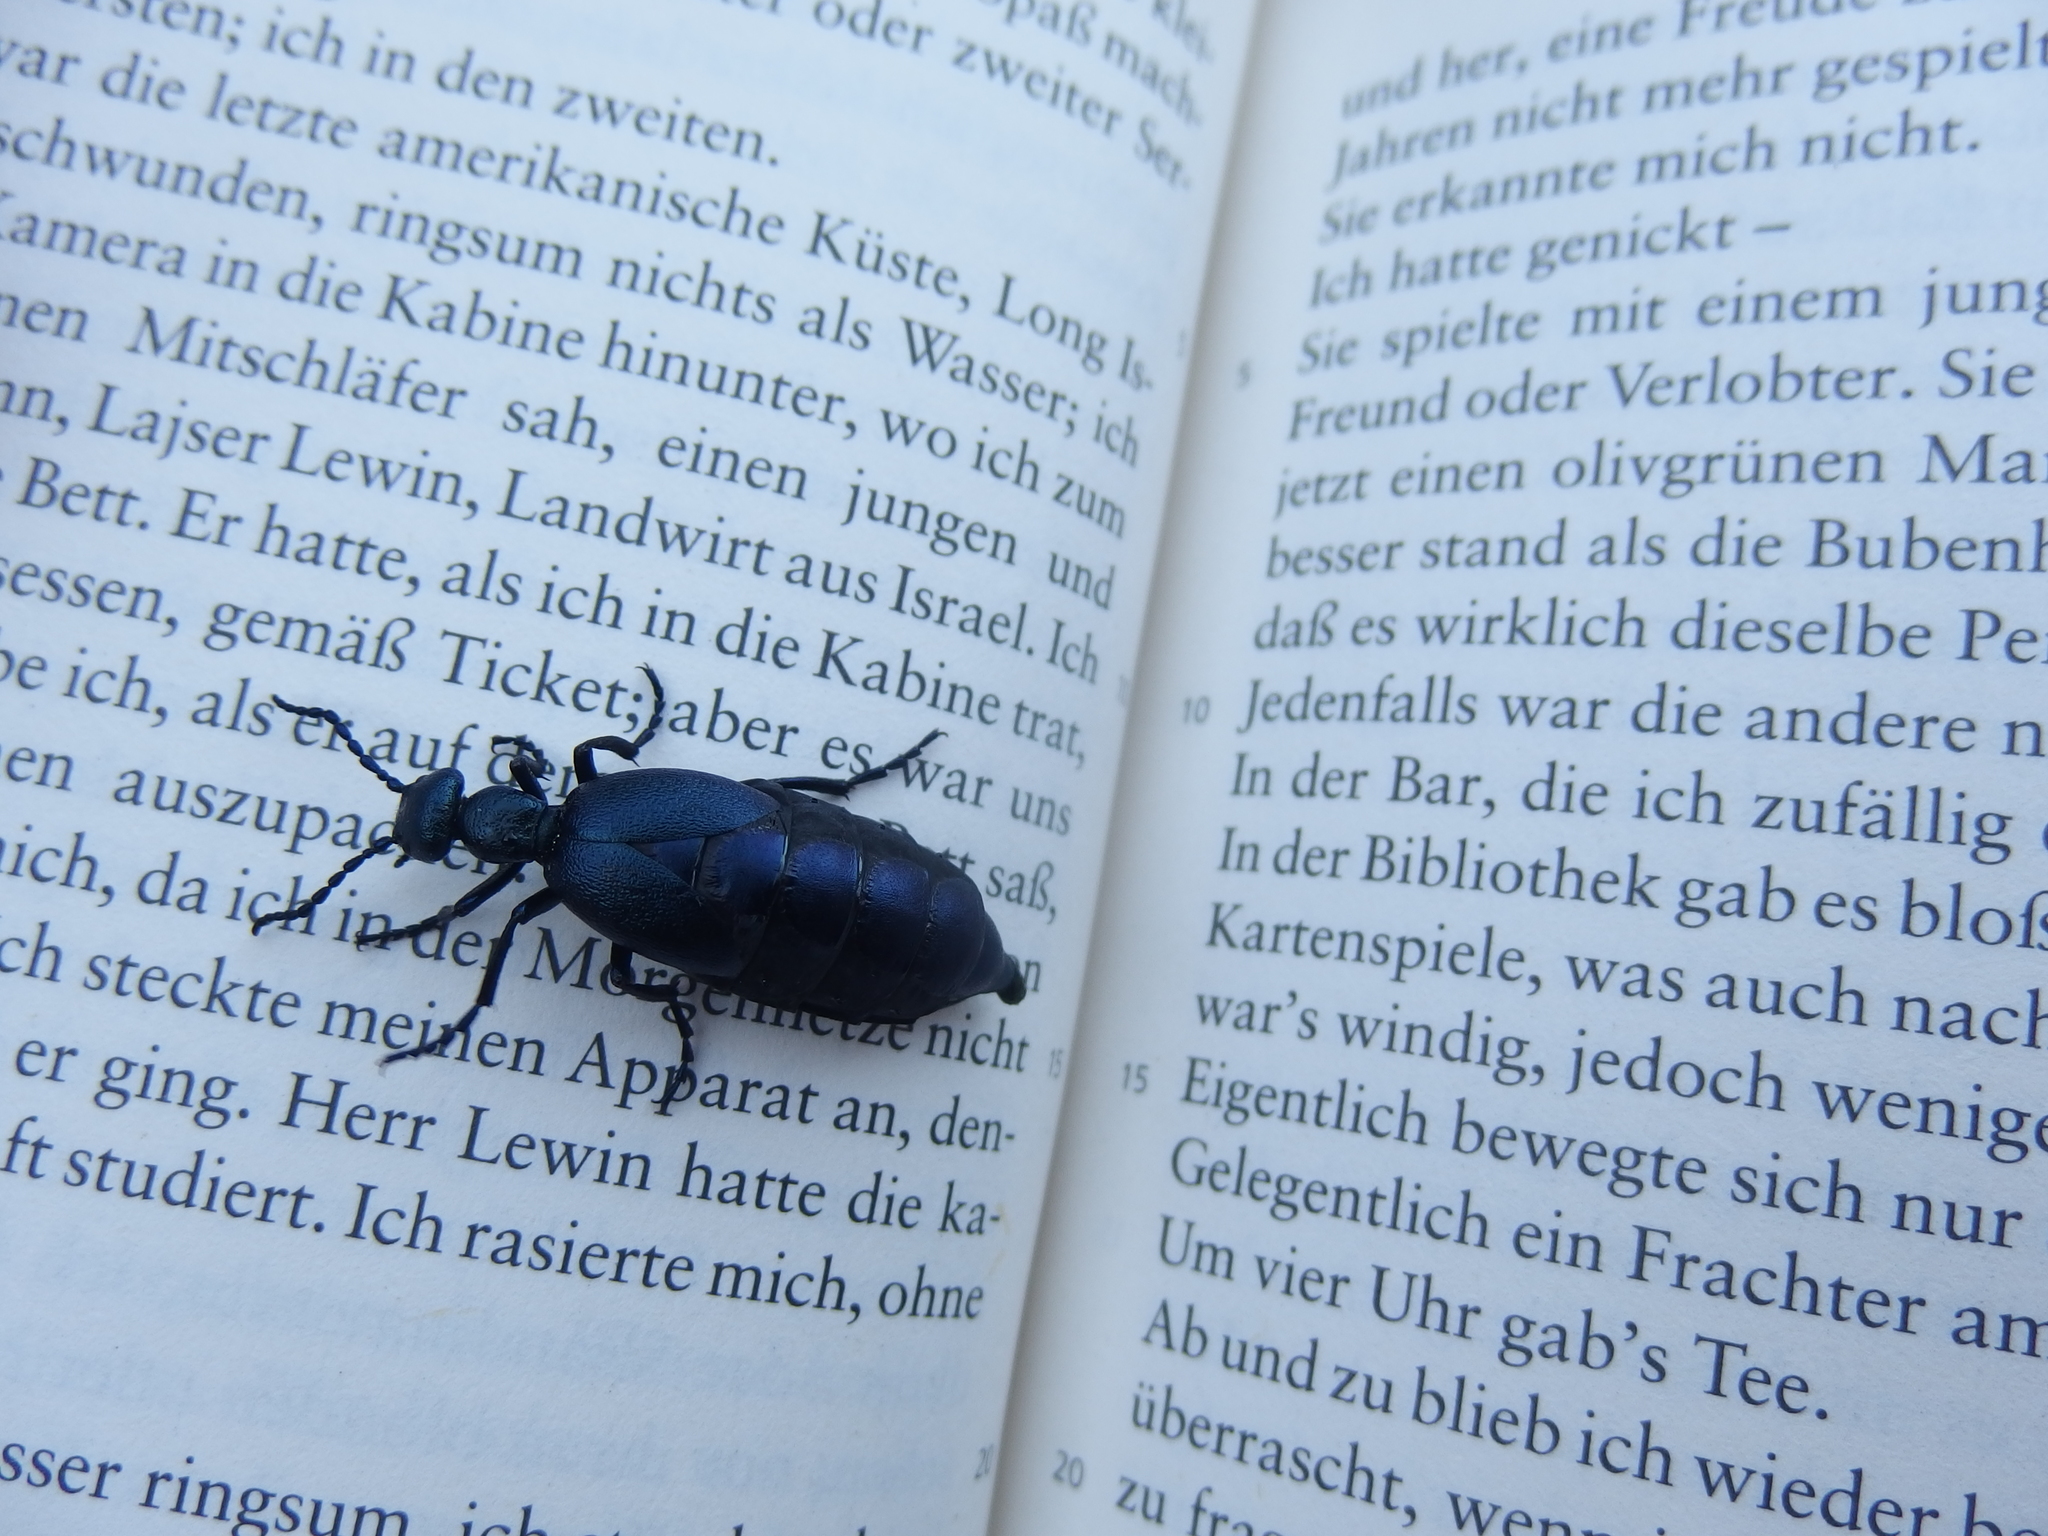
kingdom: Animalia
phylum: Arthropoda
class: Insecta
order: Coleoptera
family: Meloidae
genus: Meloe
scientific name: Meloe violaceus
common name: Violet oil-beetle
